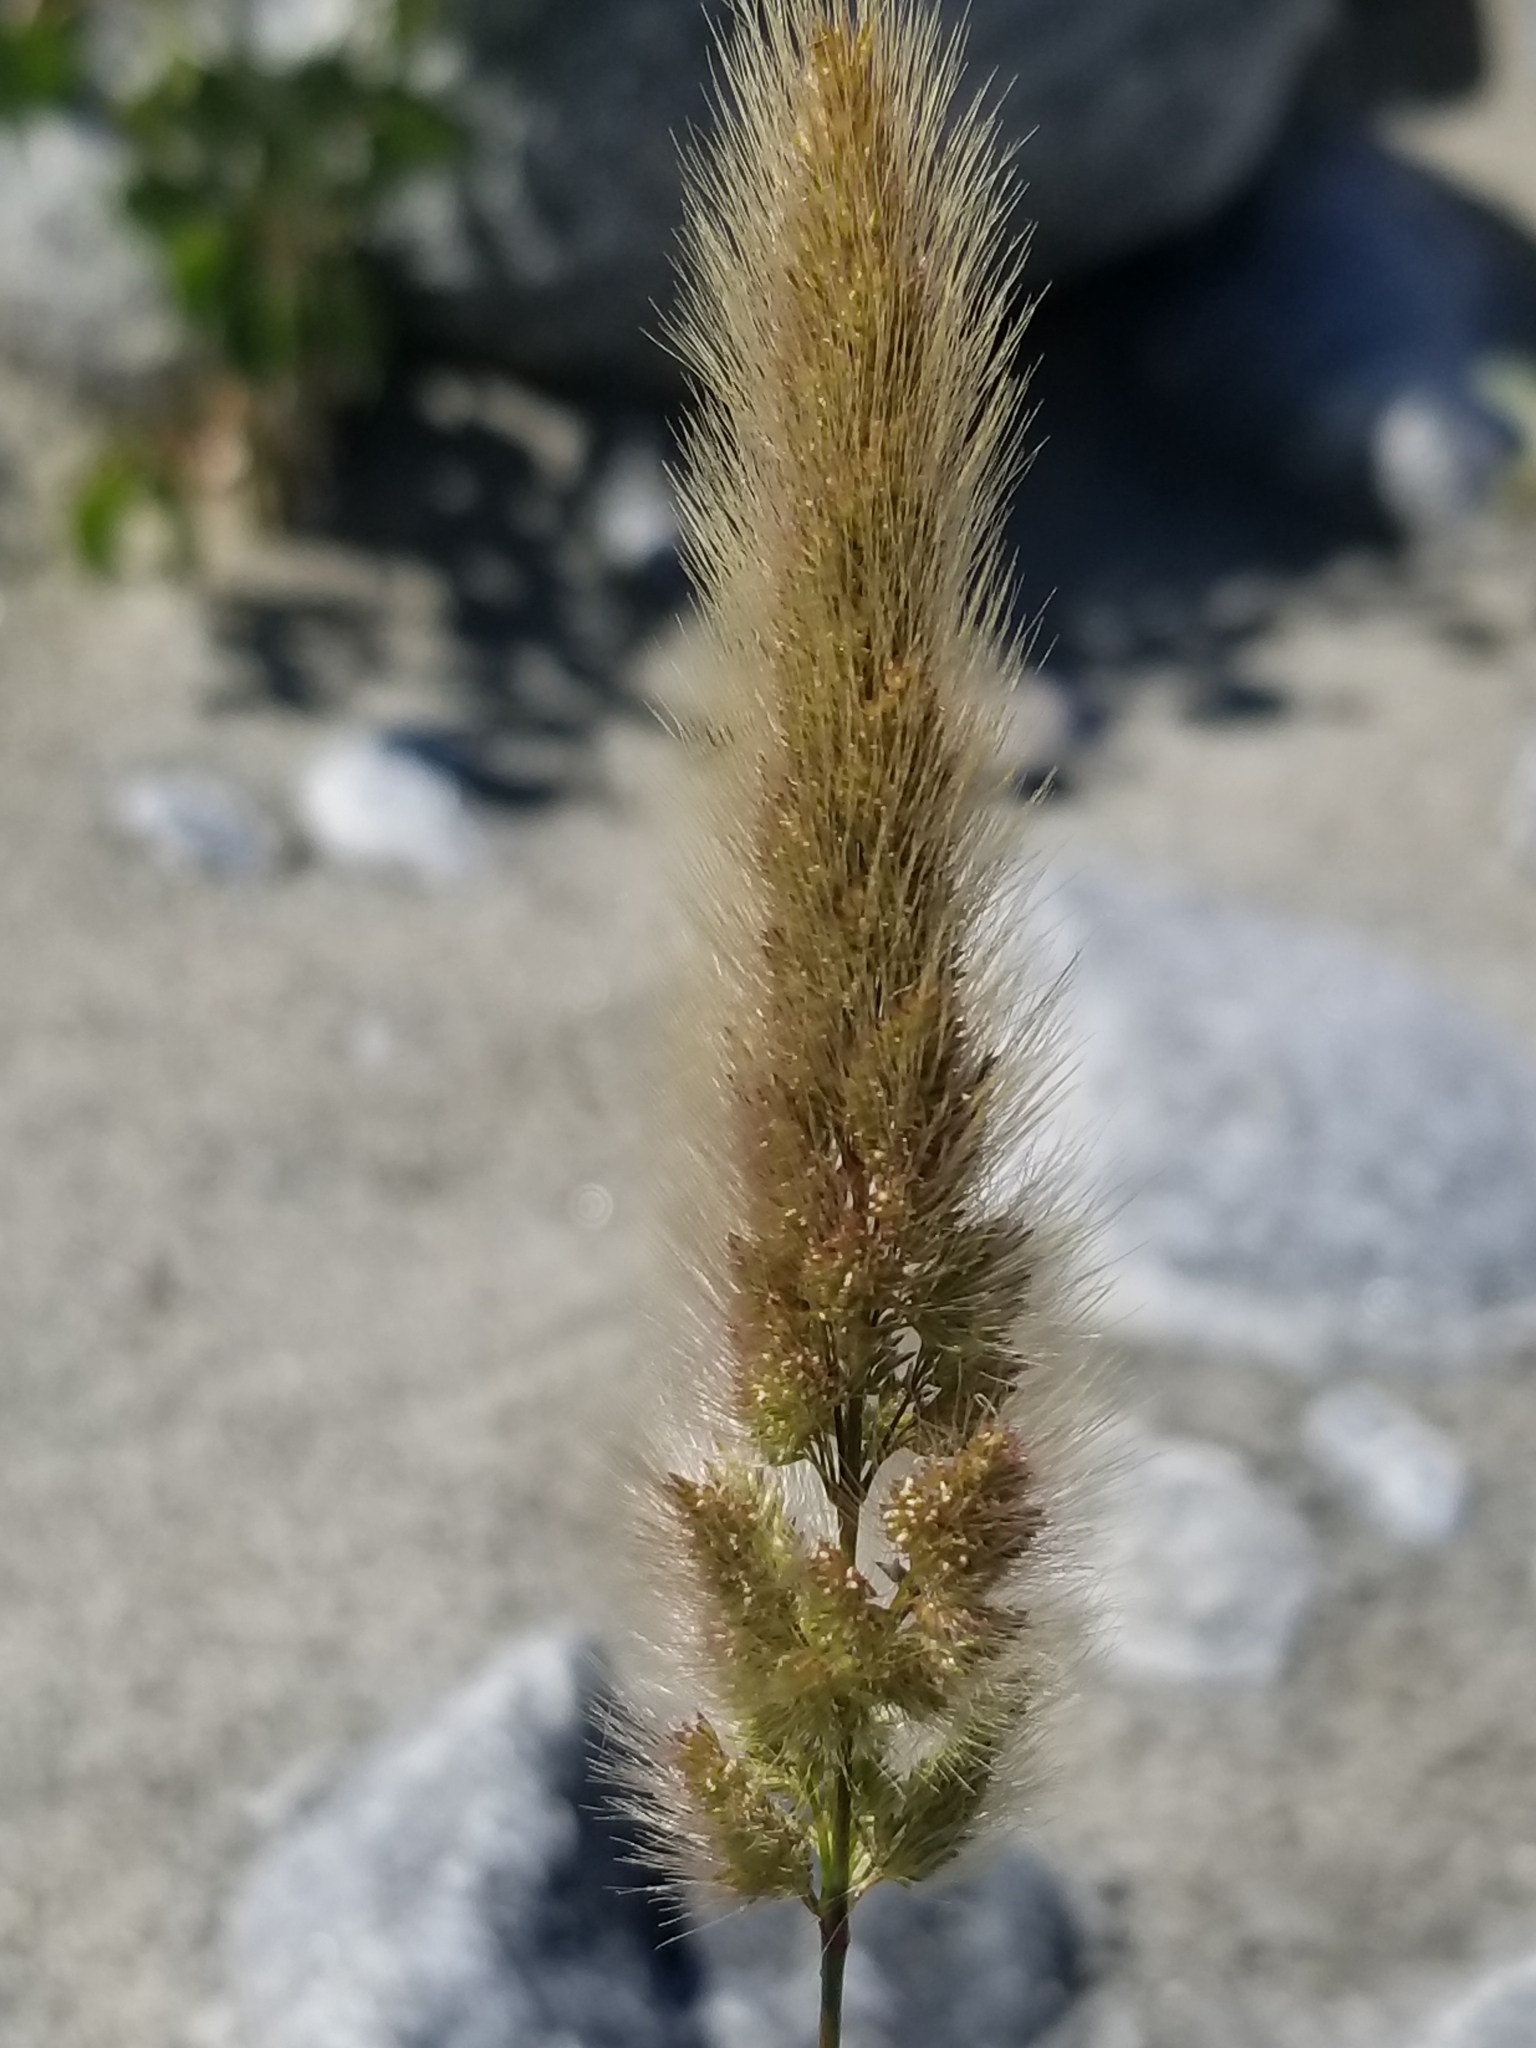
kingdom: Plantae
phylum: Tracheophyta
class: Liliopsida
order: Poales
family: Poaceae
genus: Polypogon
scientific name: Polypogon monspeliensis
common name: Annual rabbitsfoot grass
